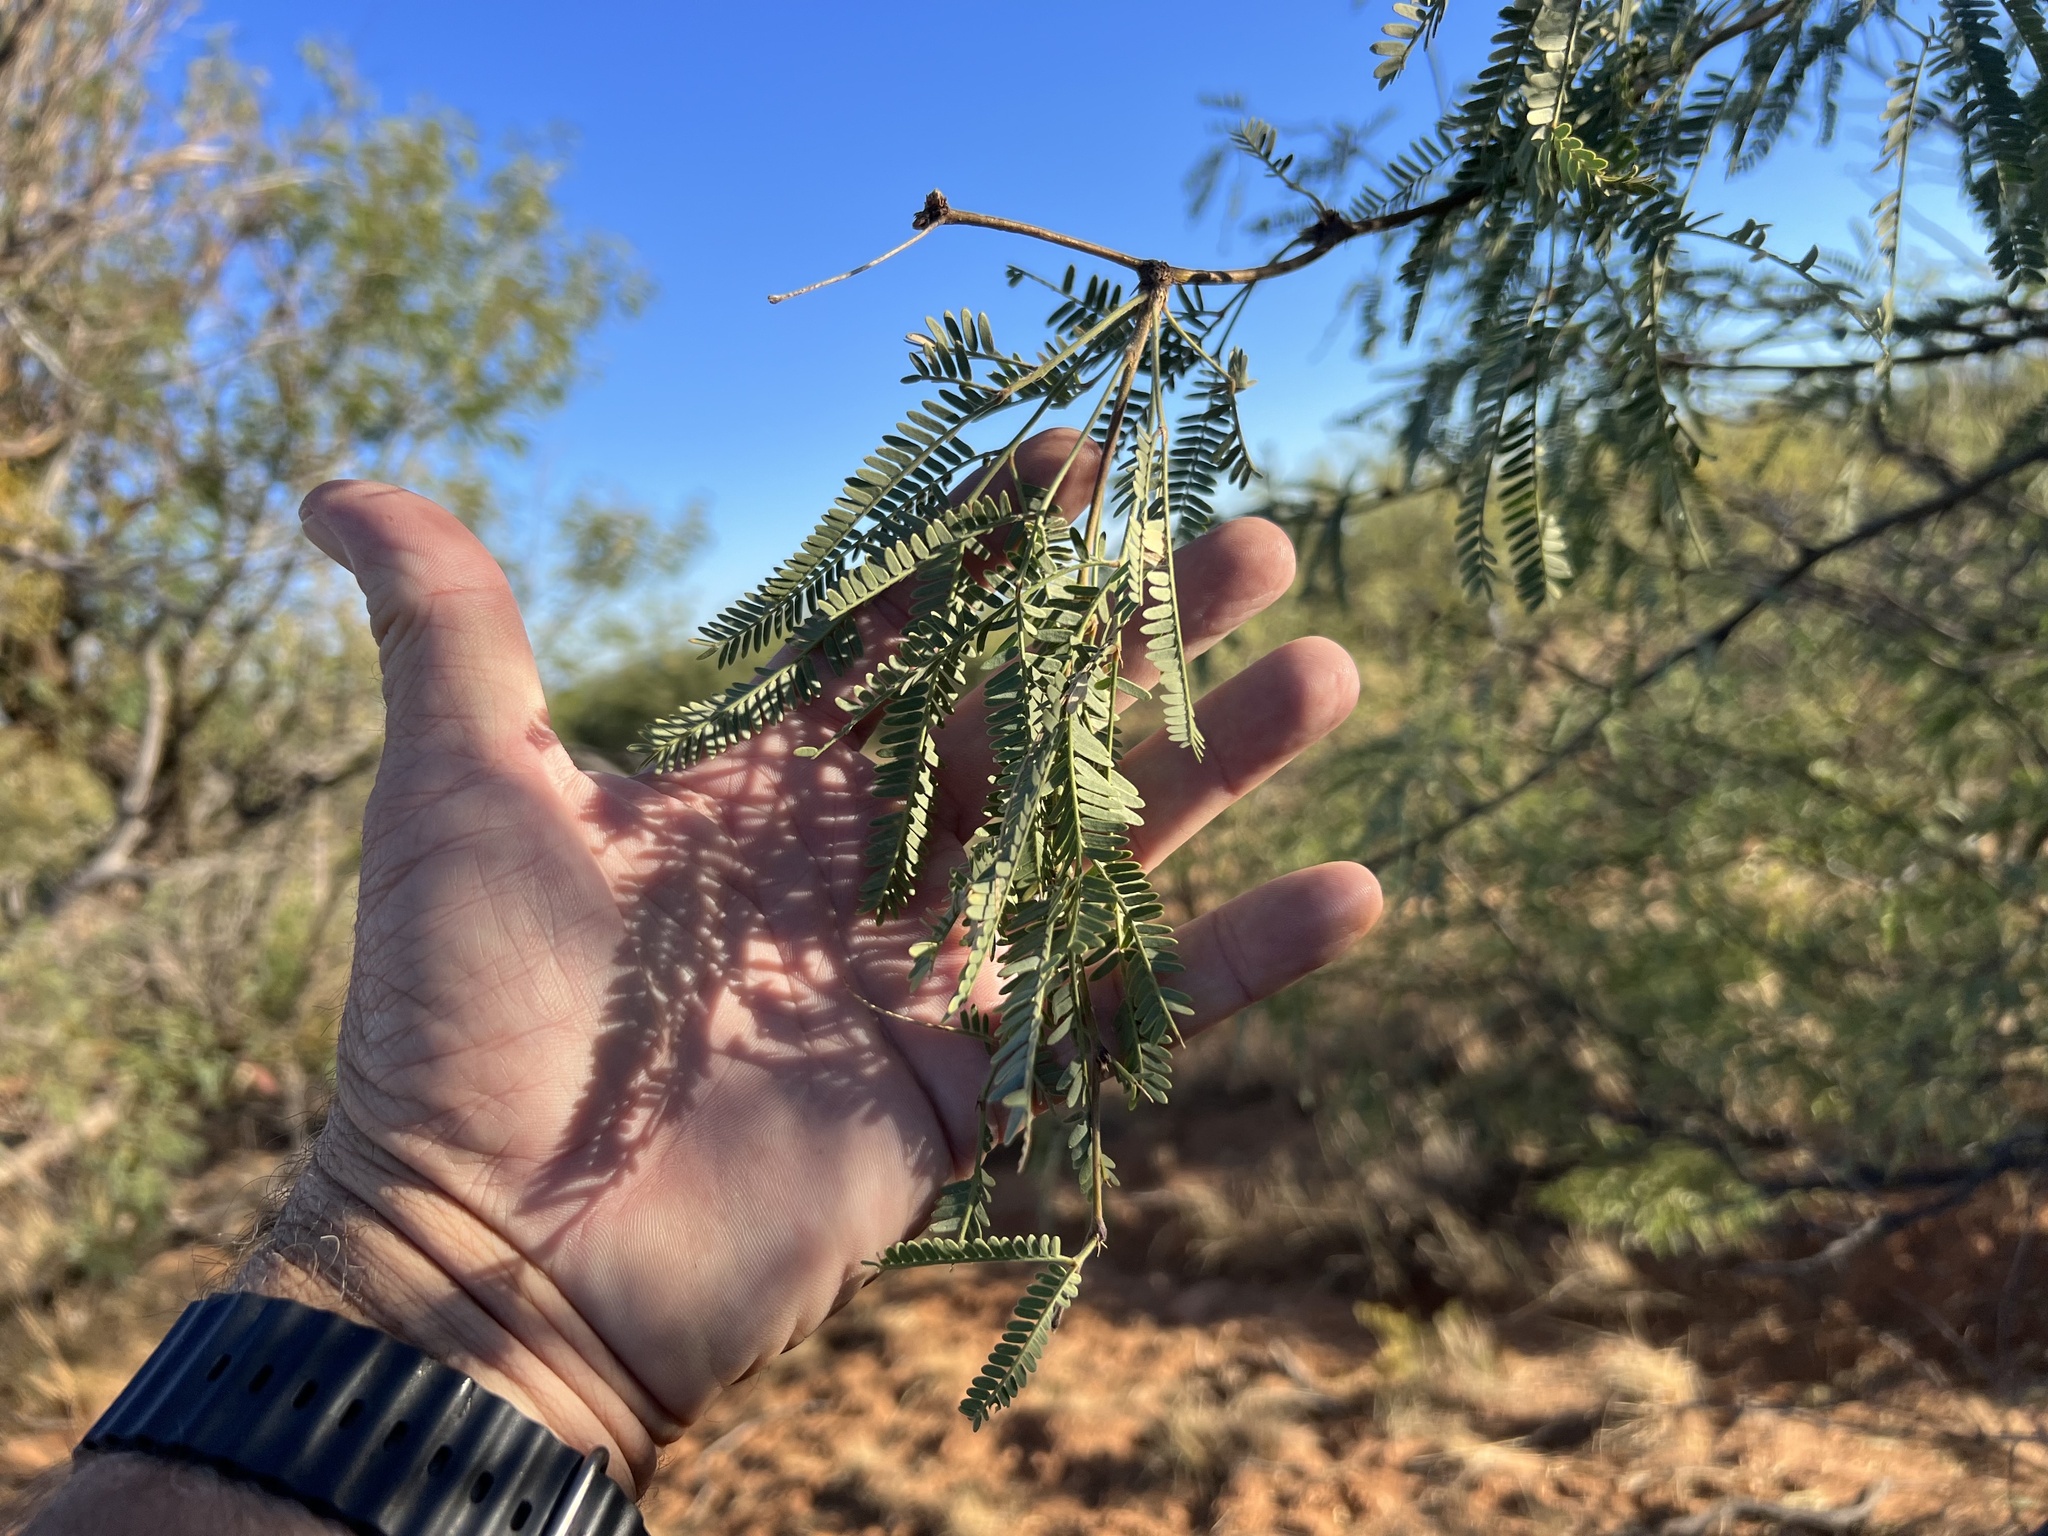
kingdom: Plantae
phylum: Tracheophyta
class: Magnoliopsida
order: Fabales
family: Fabaceae
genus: Prosopis
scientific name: Prosopis velutina
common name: Velvet mesquite
